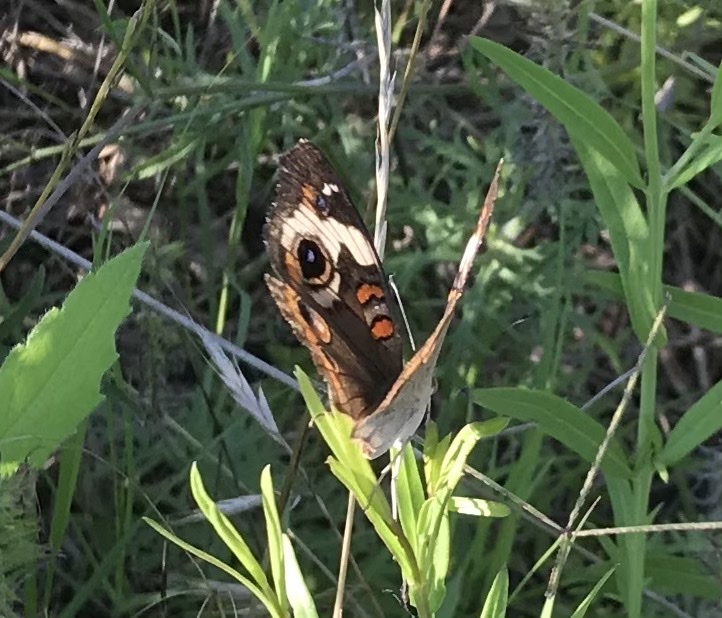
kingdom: Animalia
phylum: Arthropoda
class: Insecta
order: Lepidoptera
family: Nymphalidae
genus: Junonia
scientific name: Junonia coenia
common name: Common buckeye
